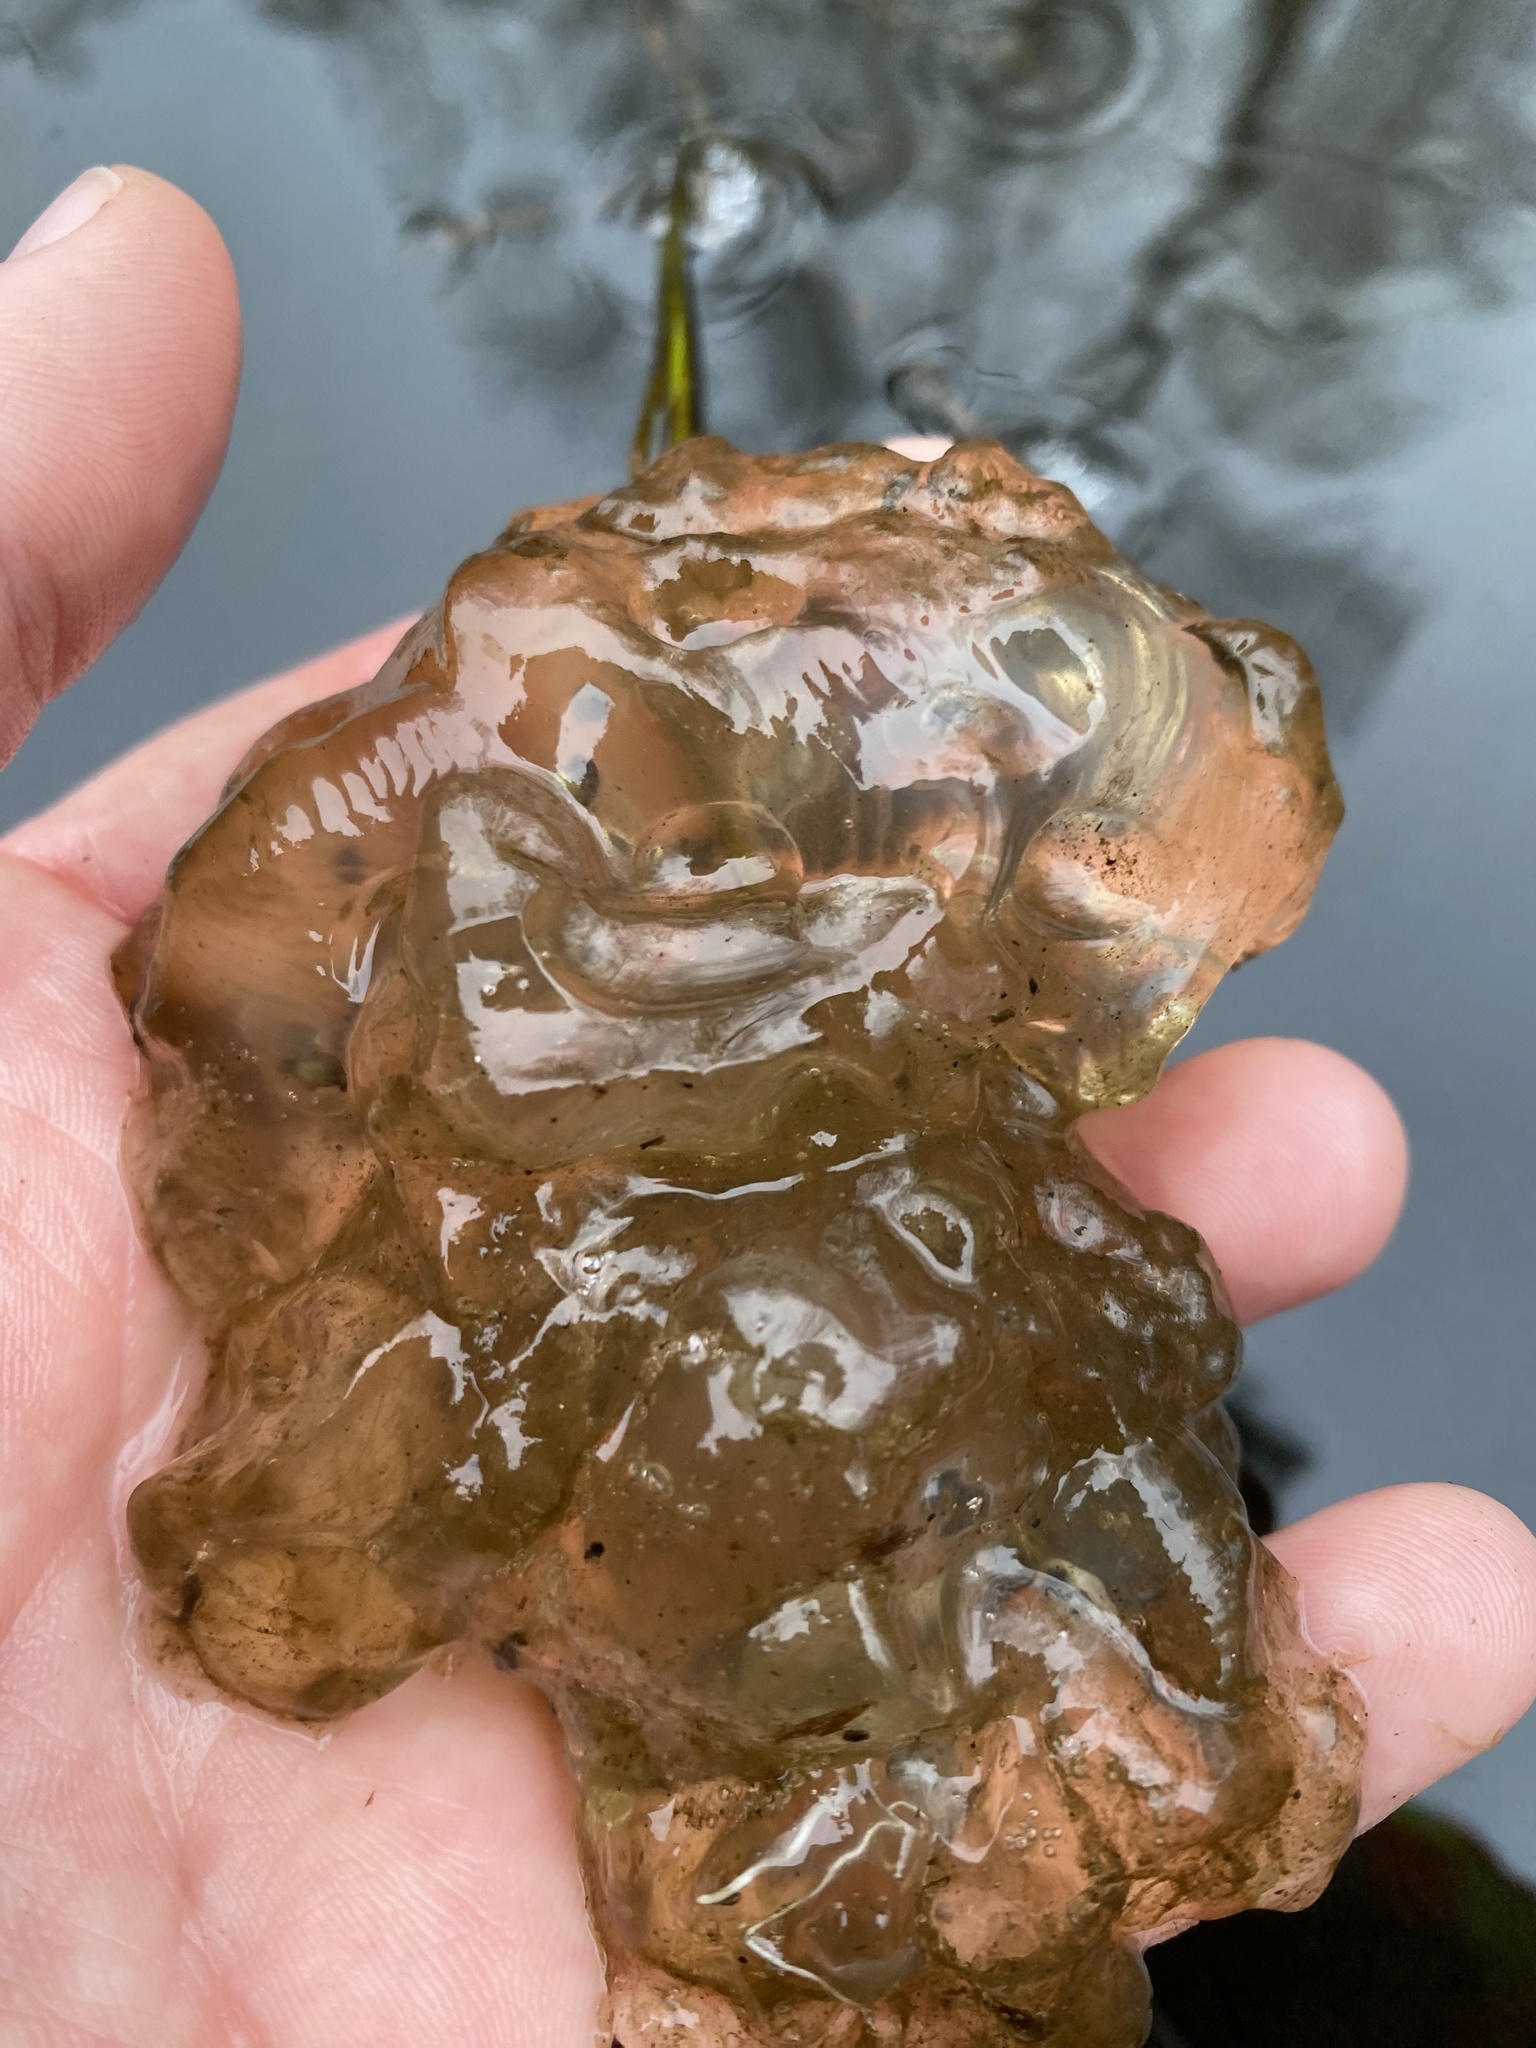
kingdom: Animalia
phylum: Chordata
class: Amphibia
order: Caudata
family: Ambystomatidae
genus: Ambystoma
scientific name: Ambystoma gracile
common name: Northwestern salamander
